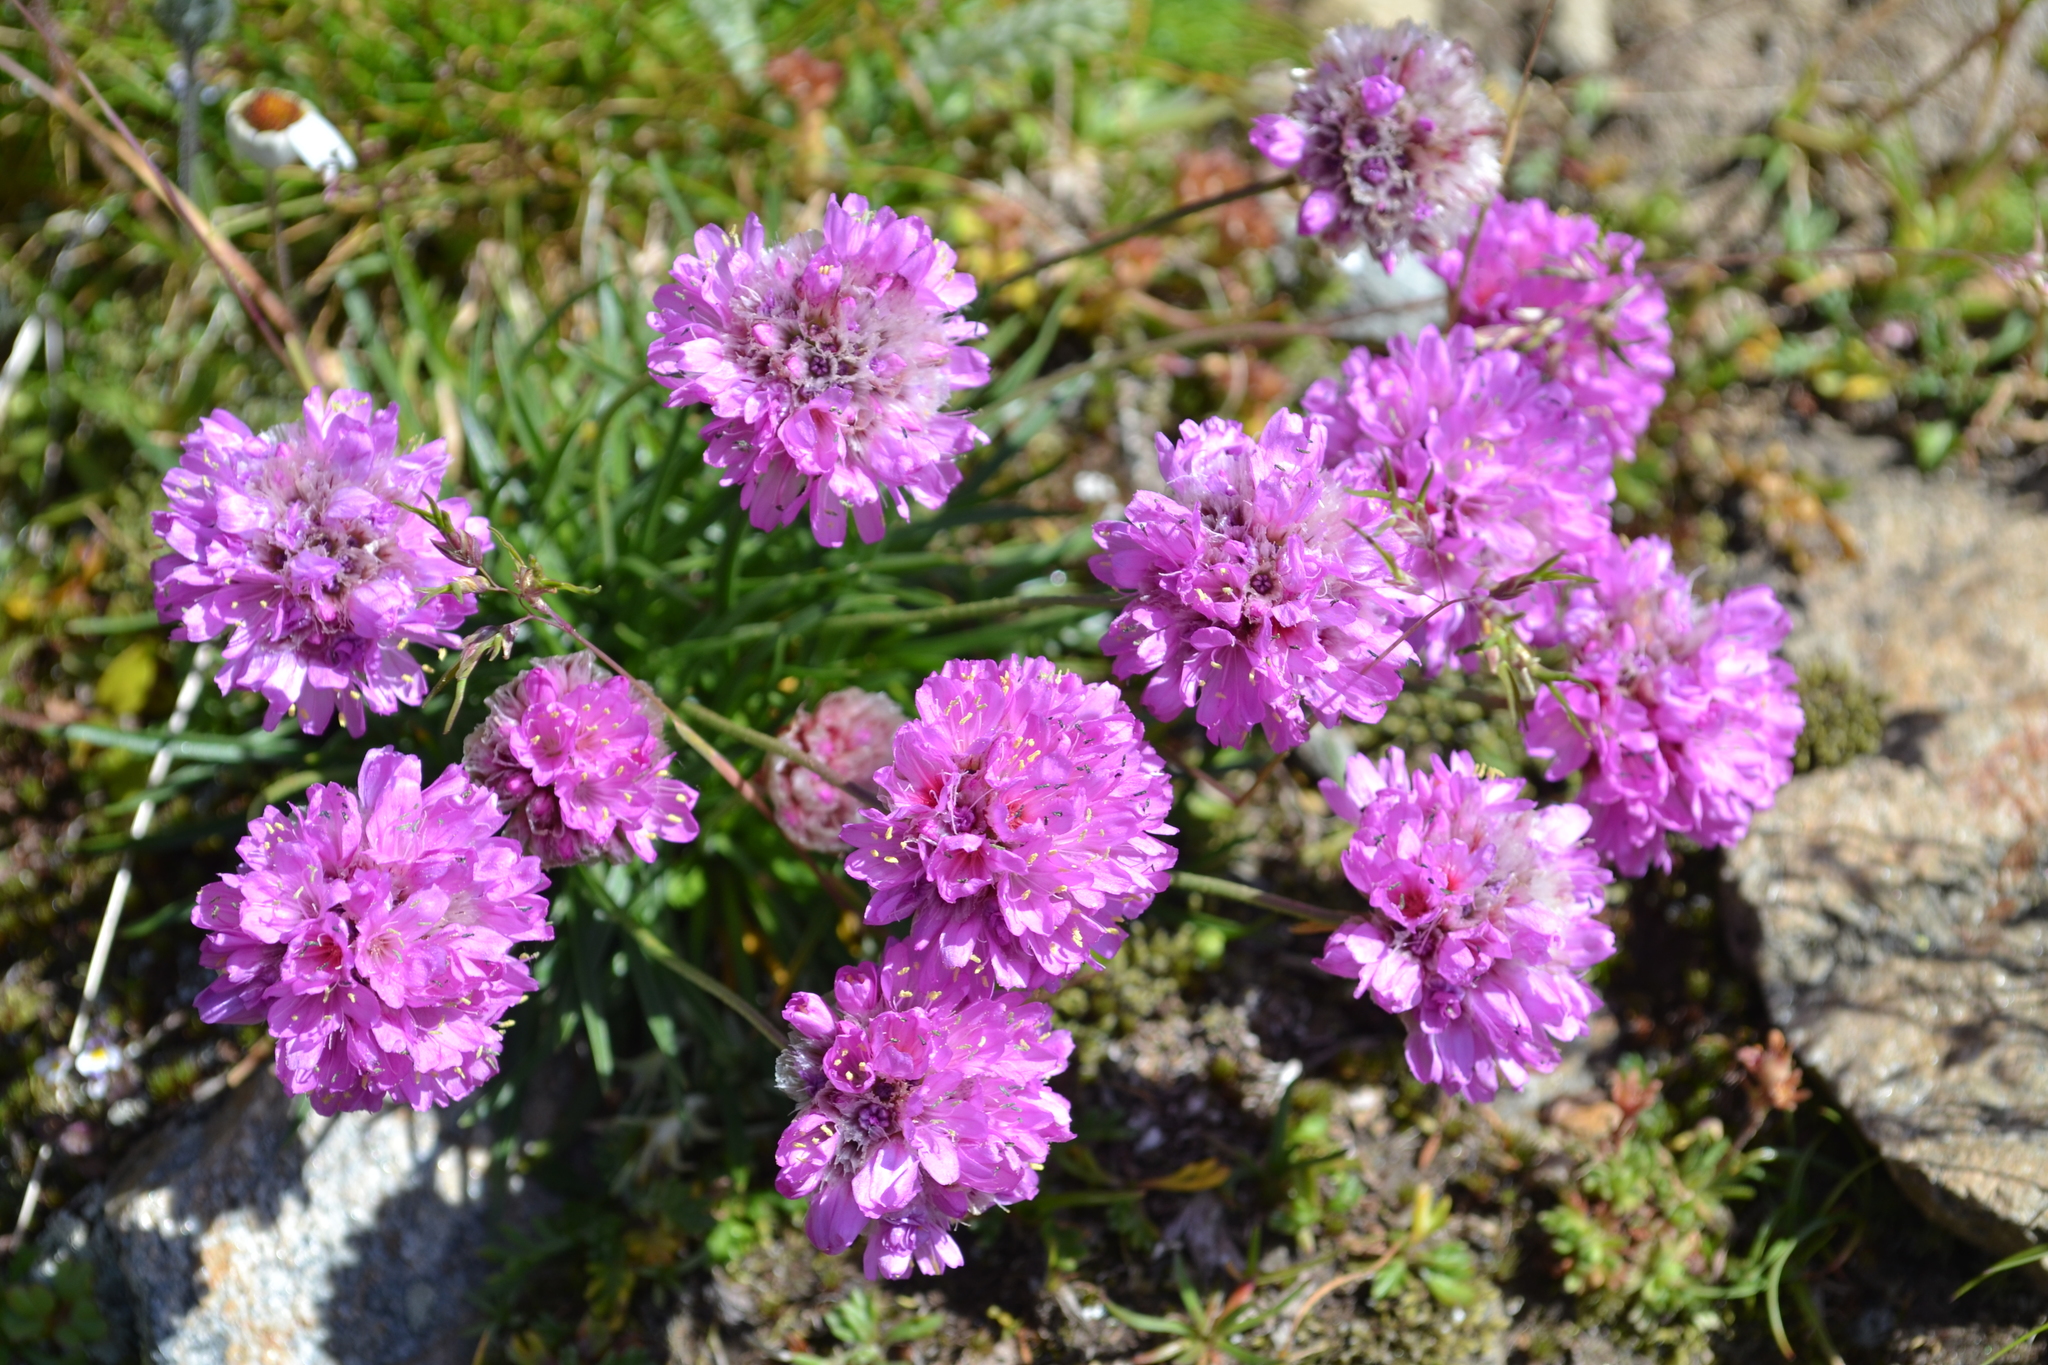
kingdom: Plantae
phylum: Tracheophyta
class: Magnoliopsida
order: Caryophyllales
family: Plumbaginaceae
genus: Armeria
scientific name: Armeria alpina
